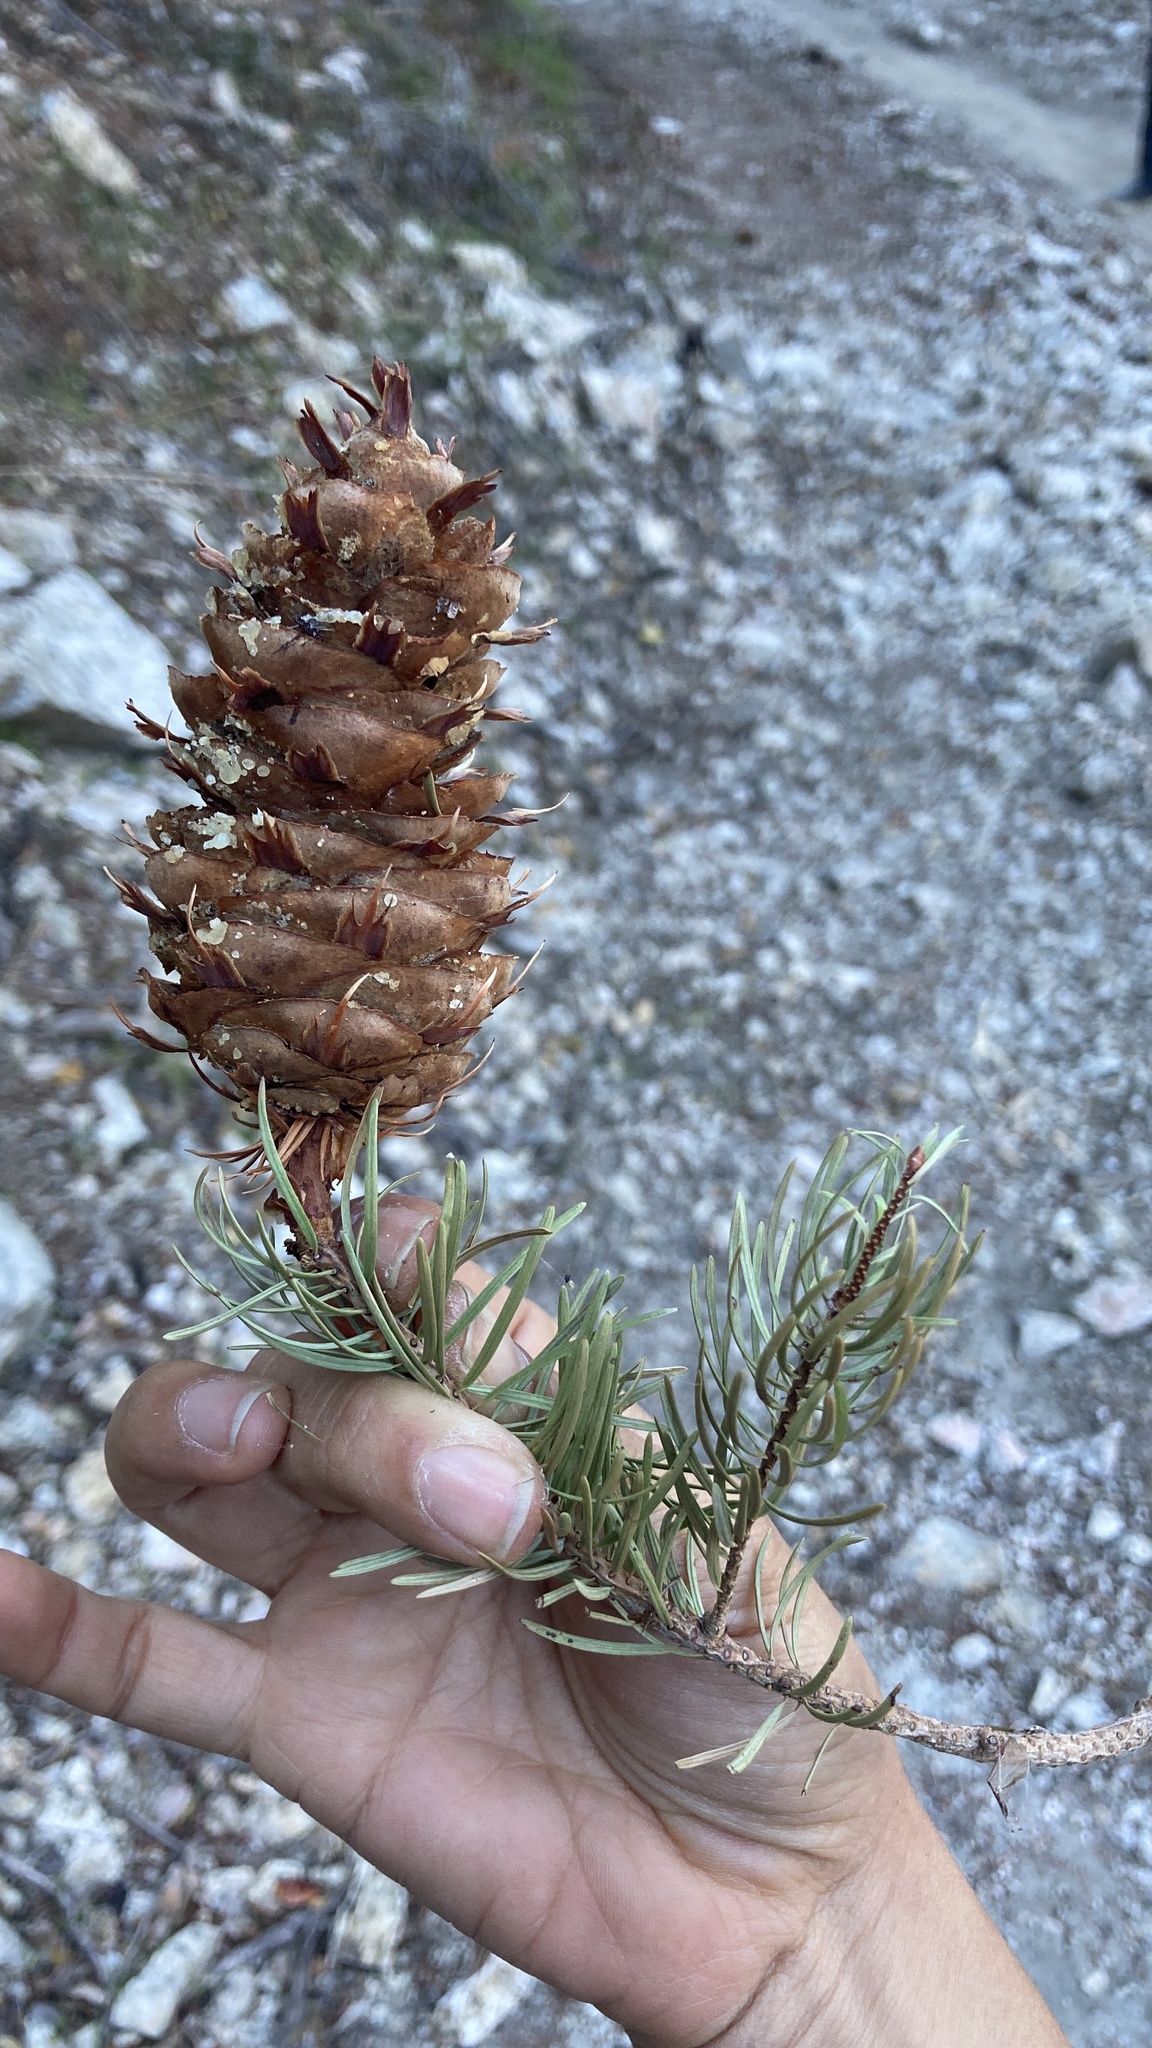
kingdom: Plantae
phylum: Tracheophyta
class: Pinopsida
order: Pinales
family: Pinaceae
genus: Pseudotsuga
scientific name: Pseudotsuga macrocarpa
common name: Big-cone douglas-fir
